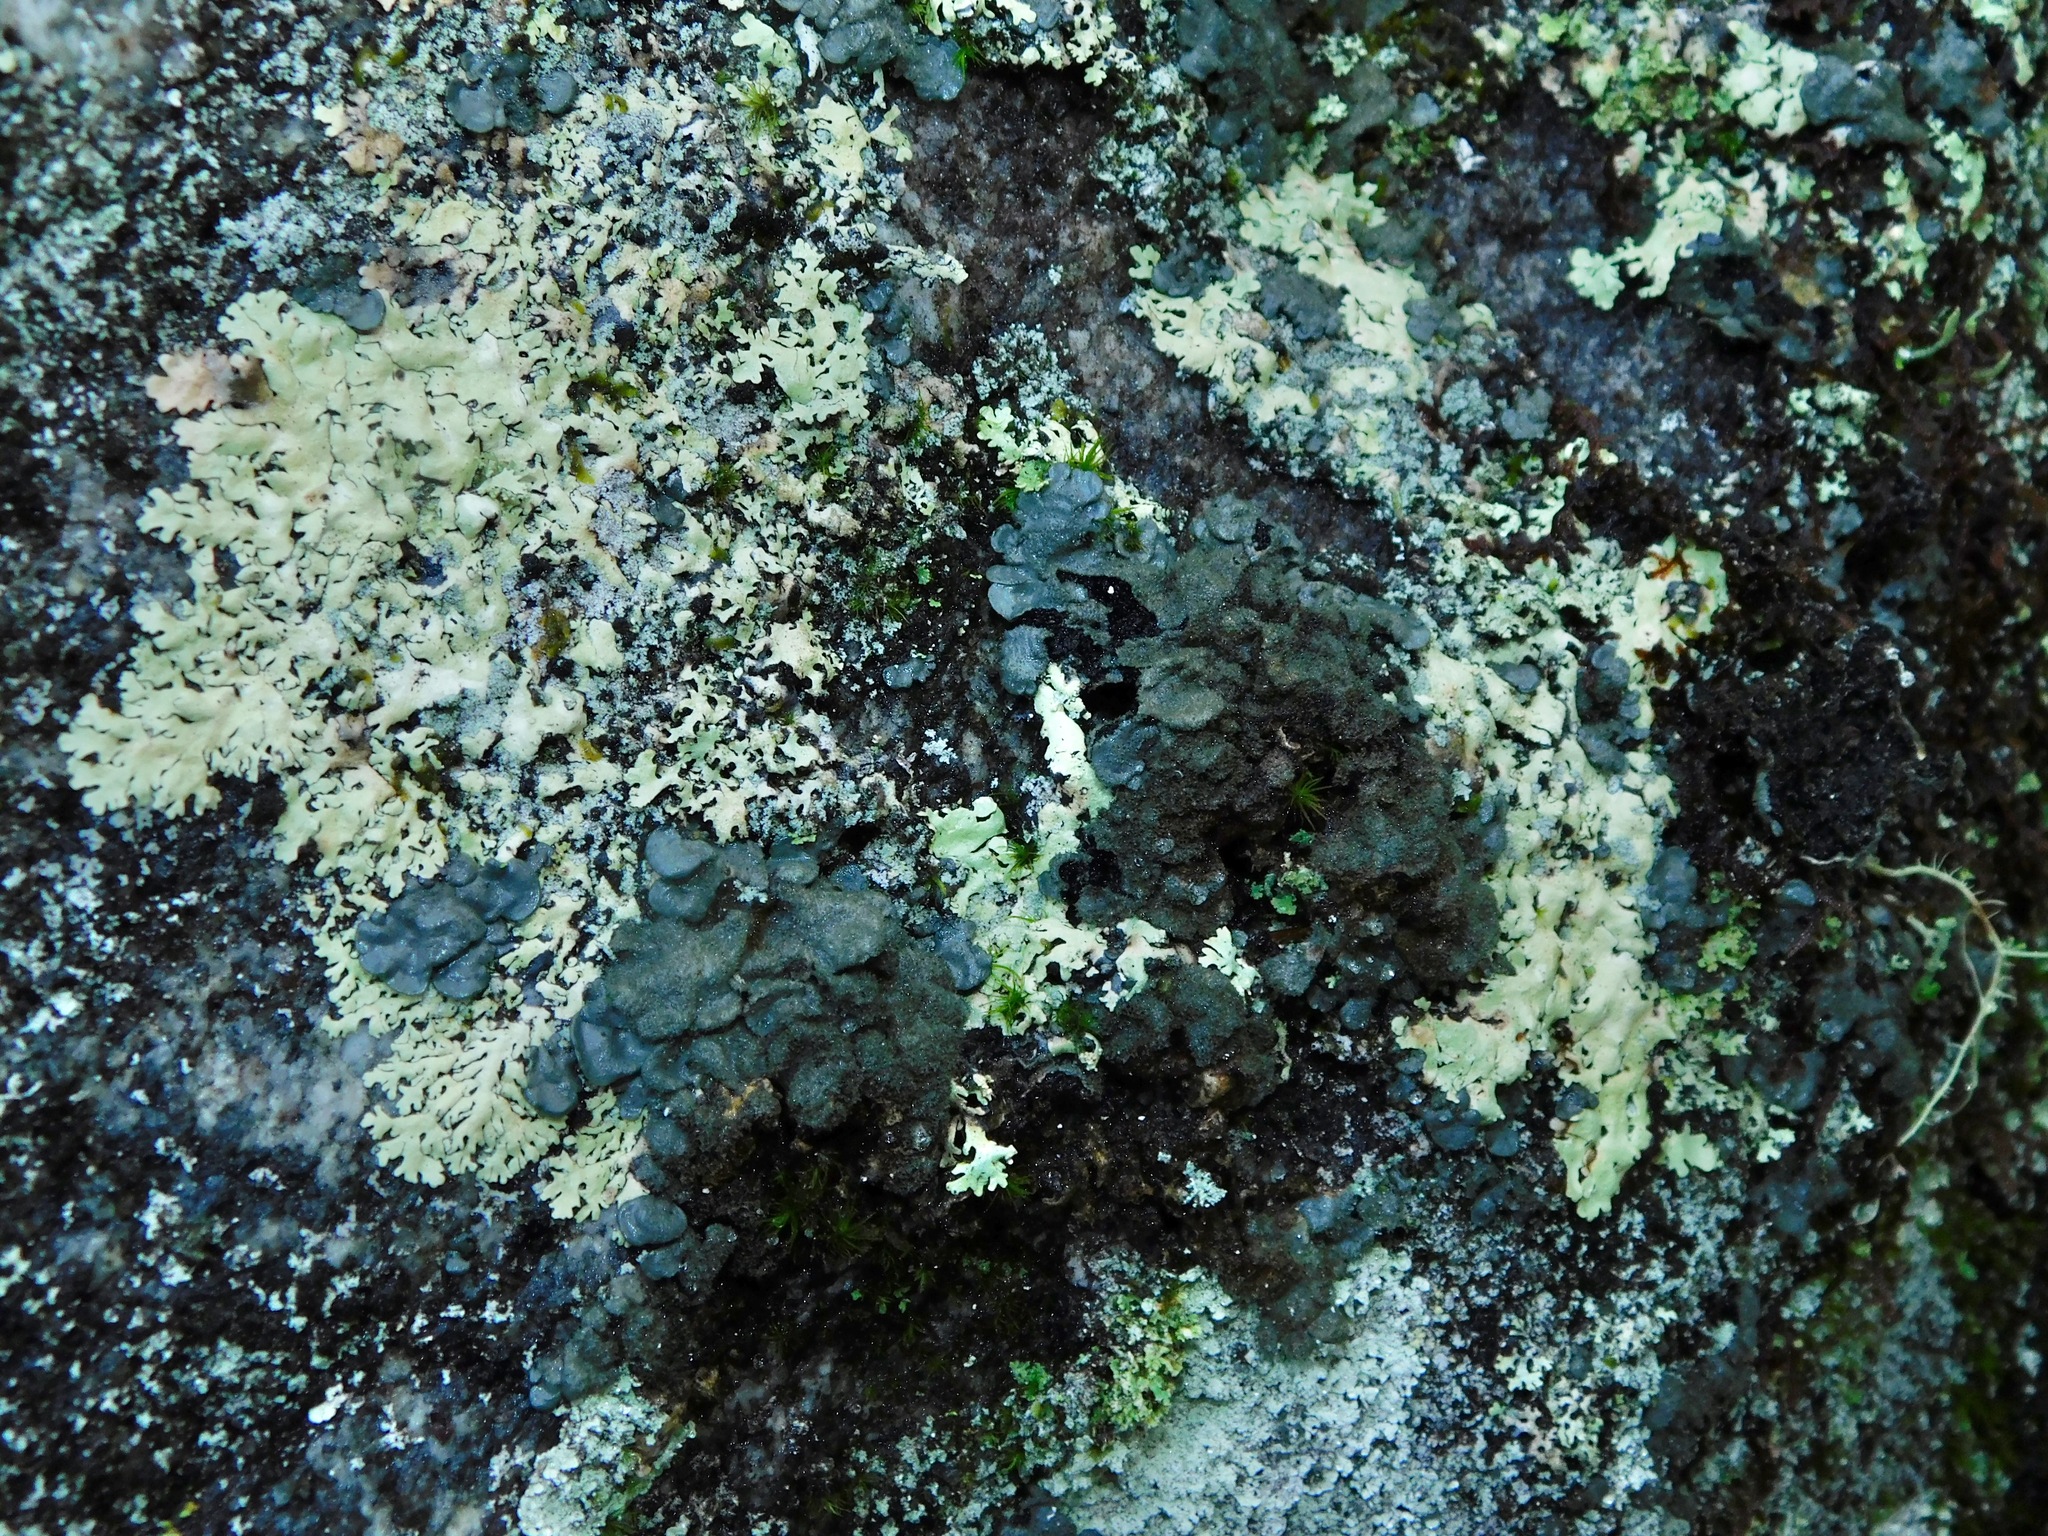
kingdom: Fungi
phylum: Ascomycota
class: Lecanoromycetes
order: Peltigerales
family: Coccocarpiaceae
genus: Coccocarpia
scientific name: Coccocarpia palmicola
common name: Salted shell lichen
